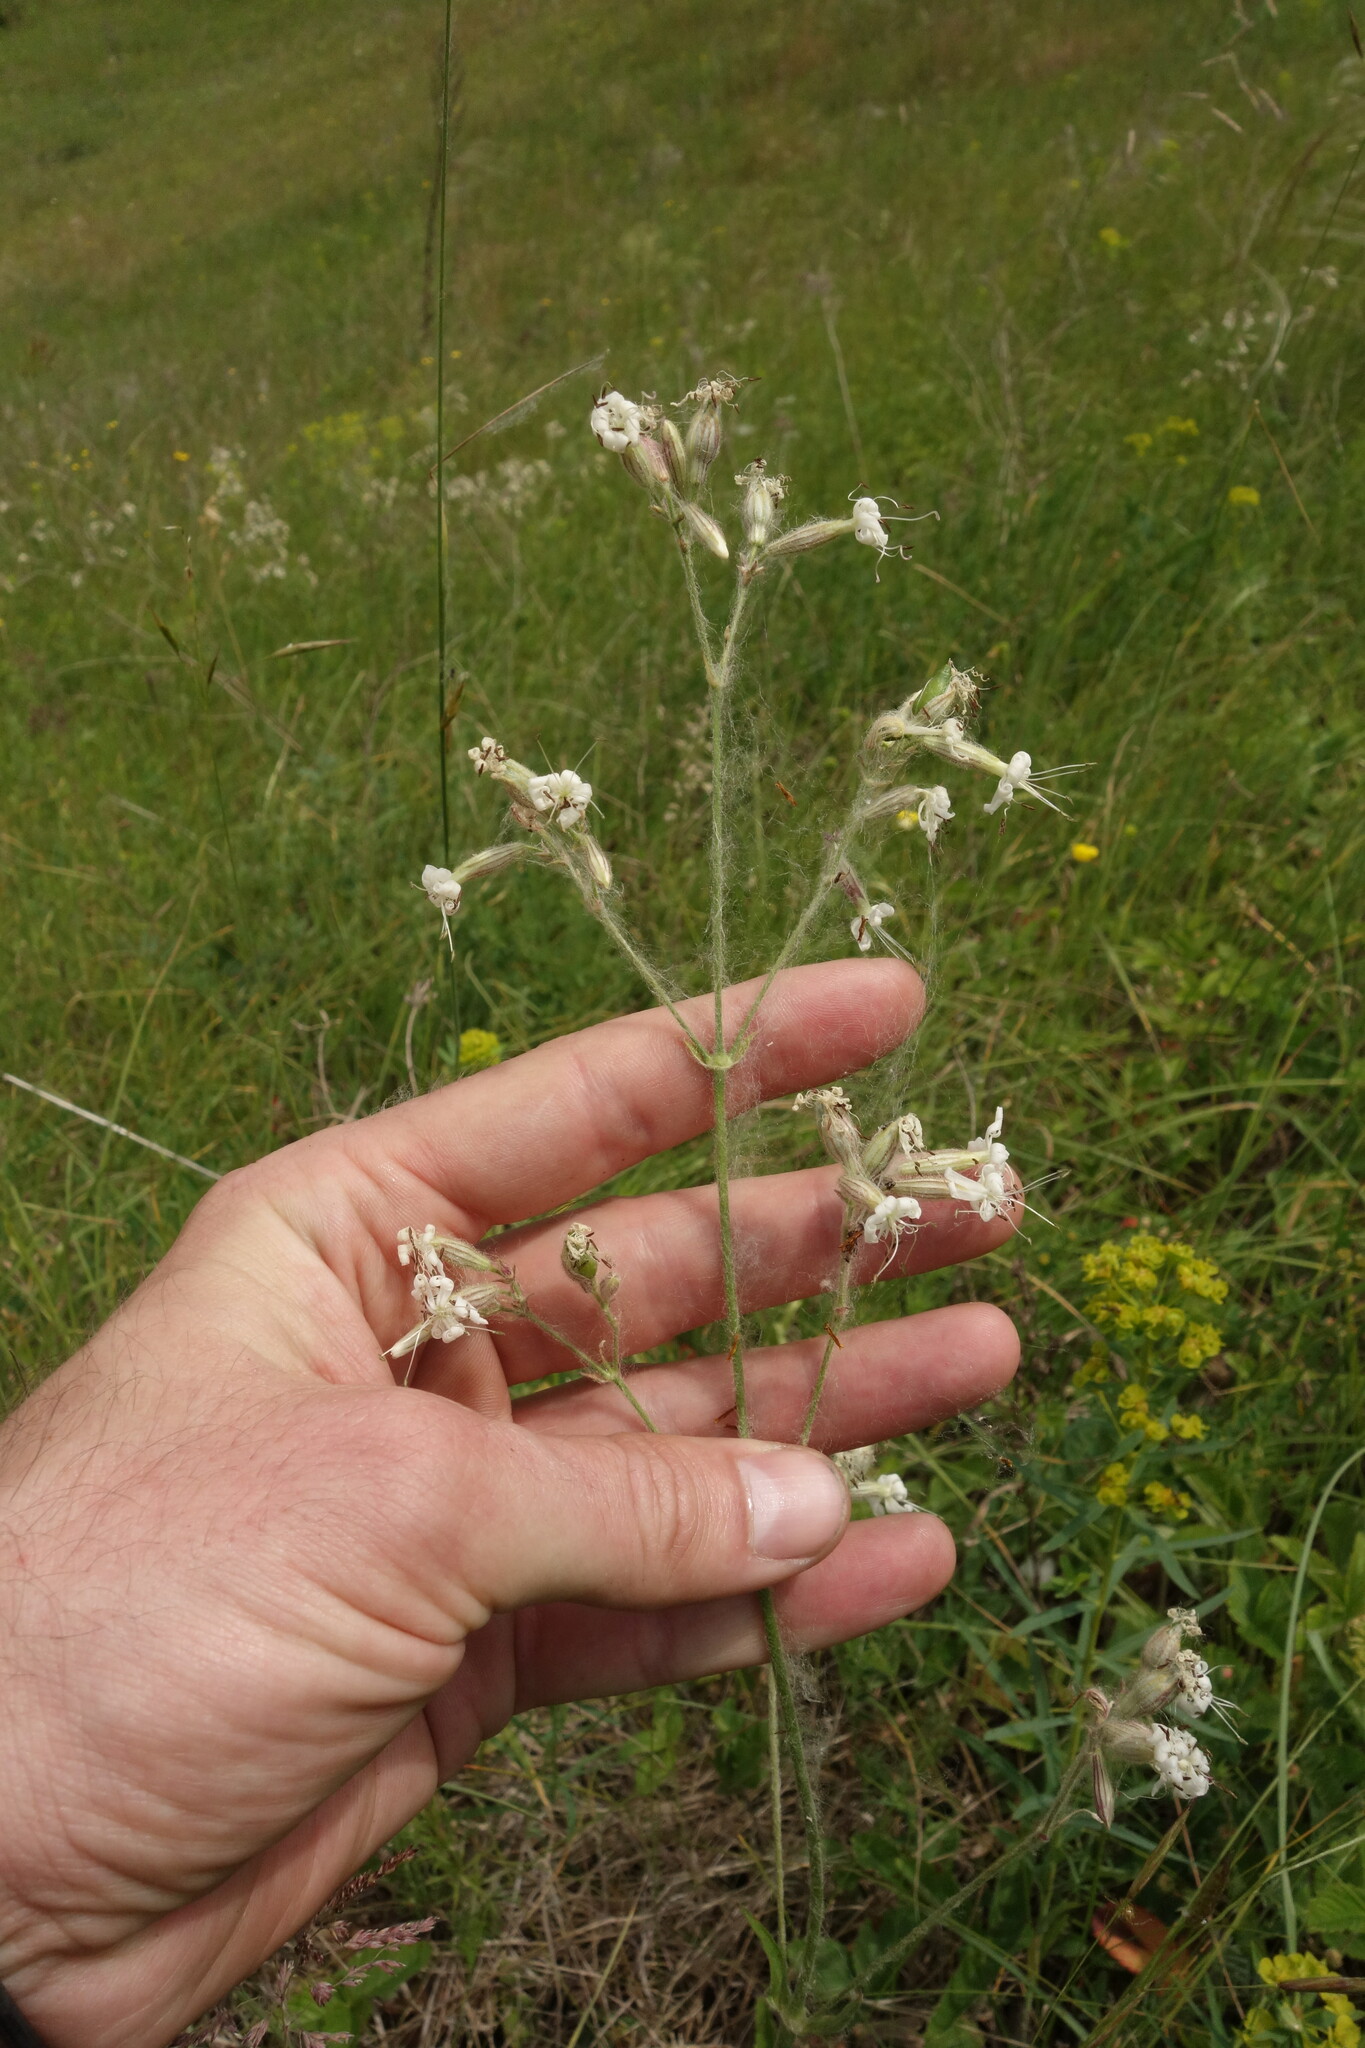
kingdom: Plantae
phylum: Tracheophyta
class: Magnoliopsida
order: Caryophyllales
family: Caryophyllaceae
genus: Silene
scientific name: Silene nutans
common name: Nottingham catchfly
